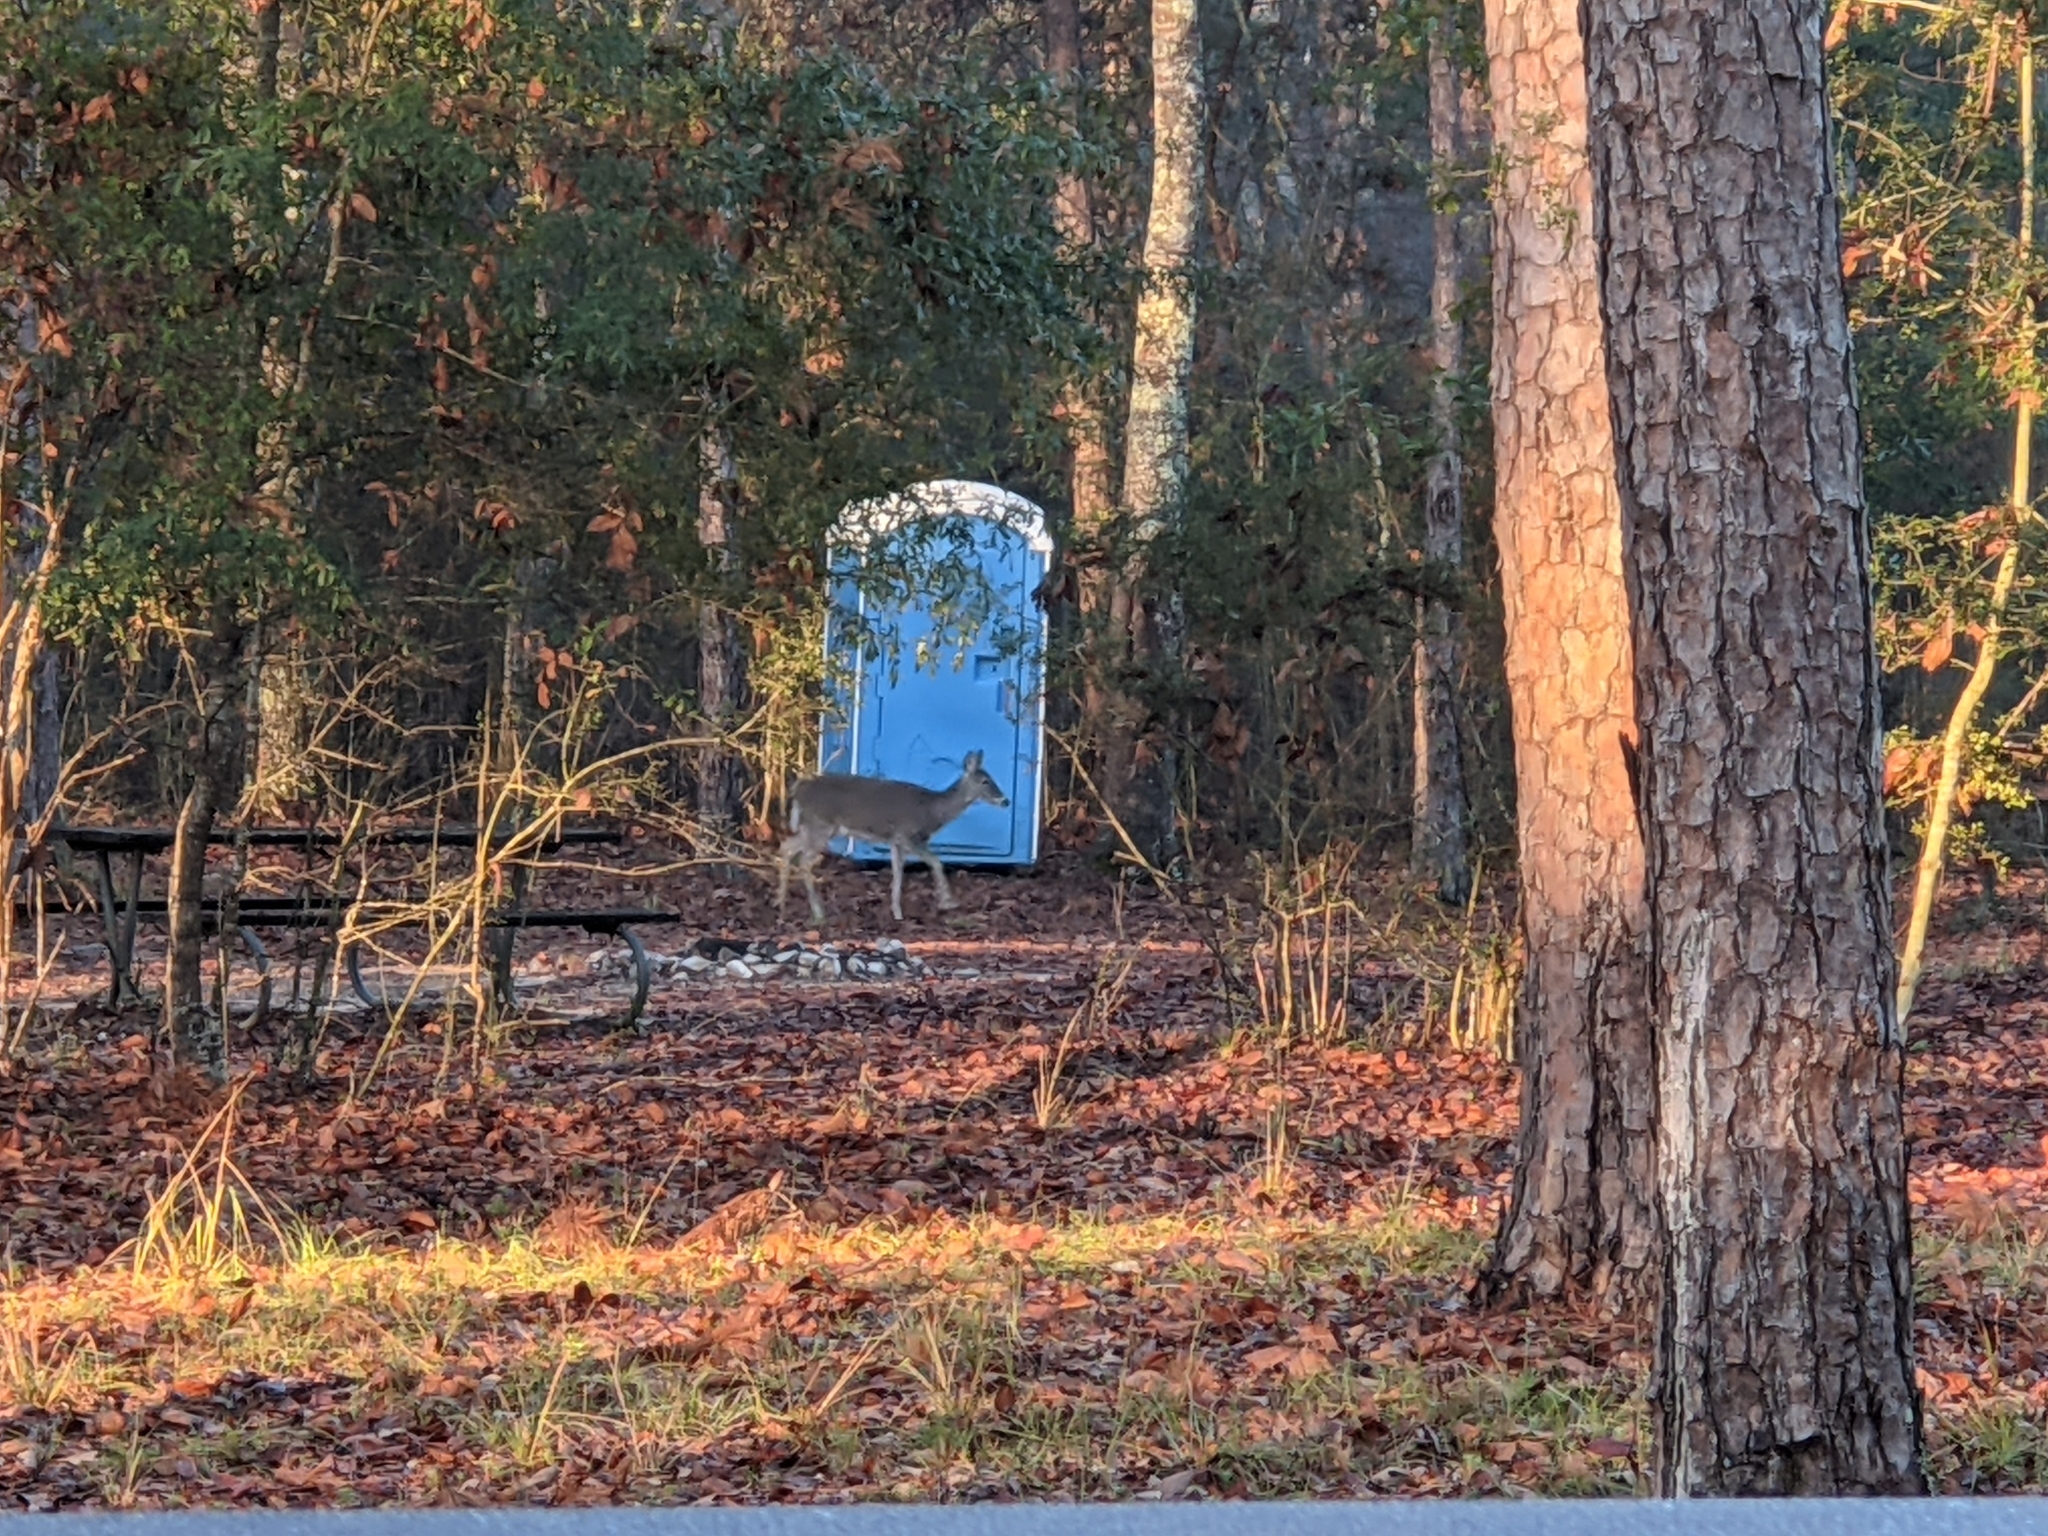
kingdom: Animalia
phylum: Chordata
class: Mammalia
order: Artiodactyla
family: Cervidae
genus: Odocoileus
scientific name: Odocoileus virginianus
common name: White-tailed deer
